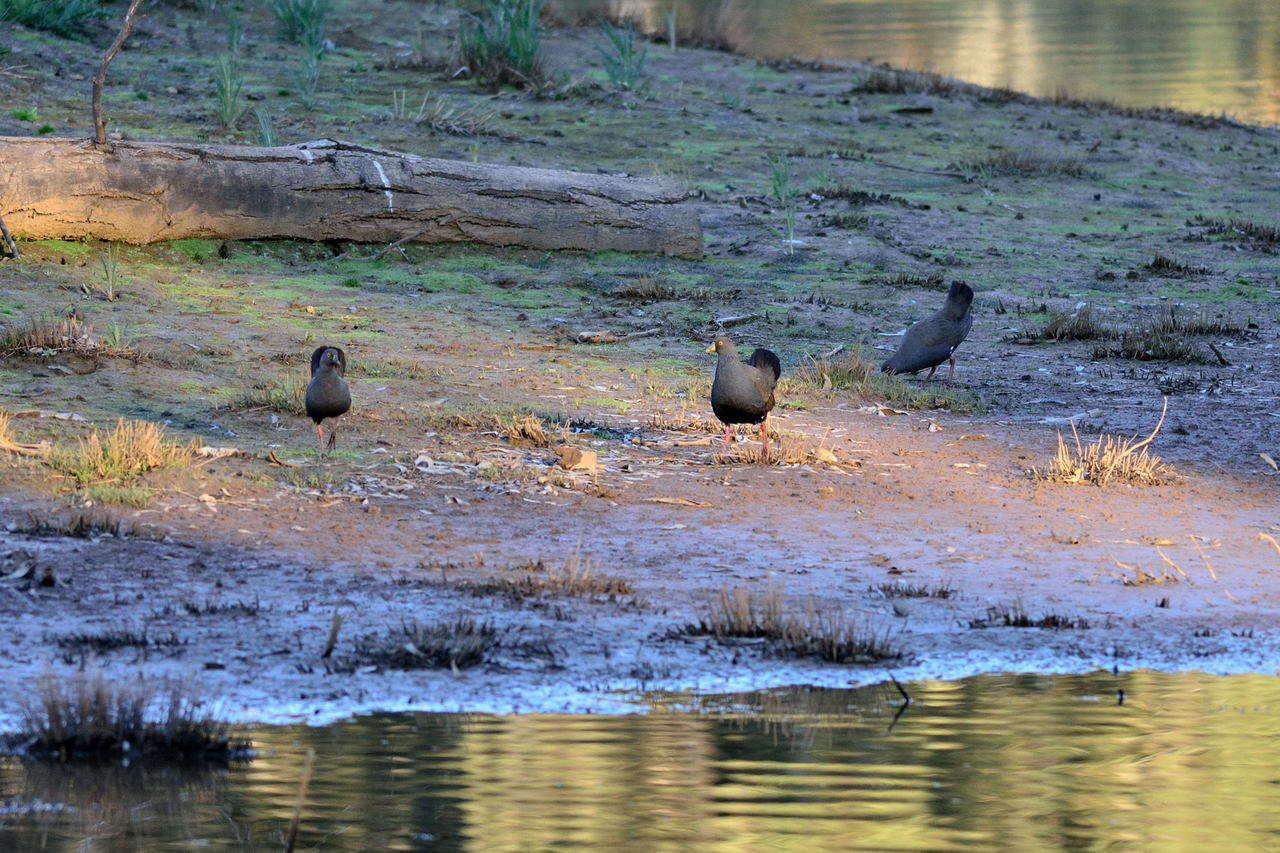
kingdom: Animalia
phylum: Chordata
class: Aves
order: Gruiformes
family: Rallidae
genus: Gallinula
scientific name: Gallinula ventralis
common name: Black-tailed nativehen
